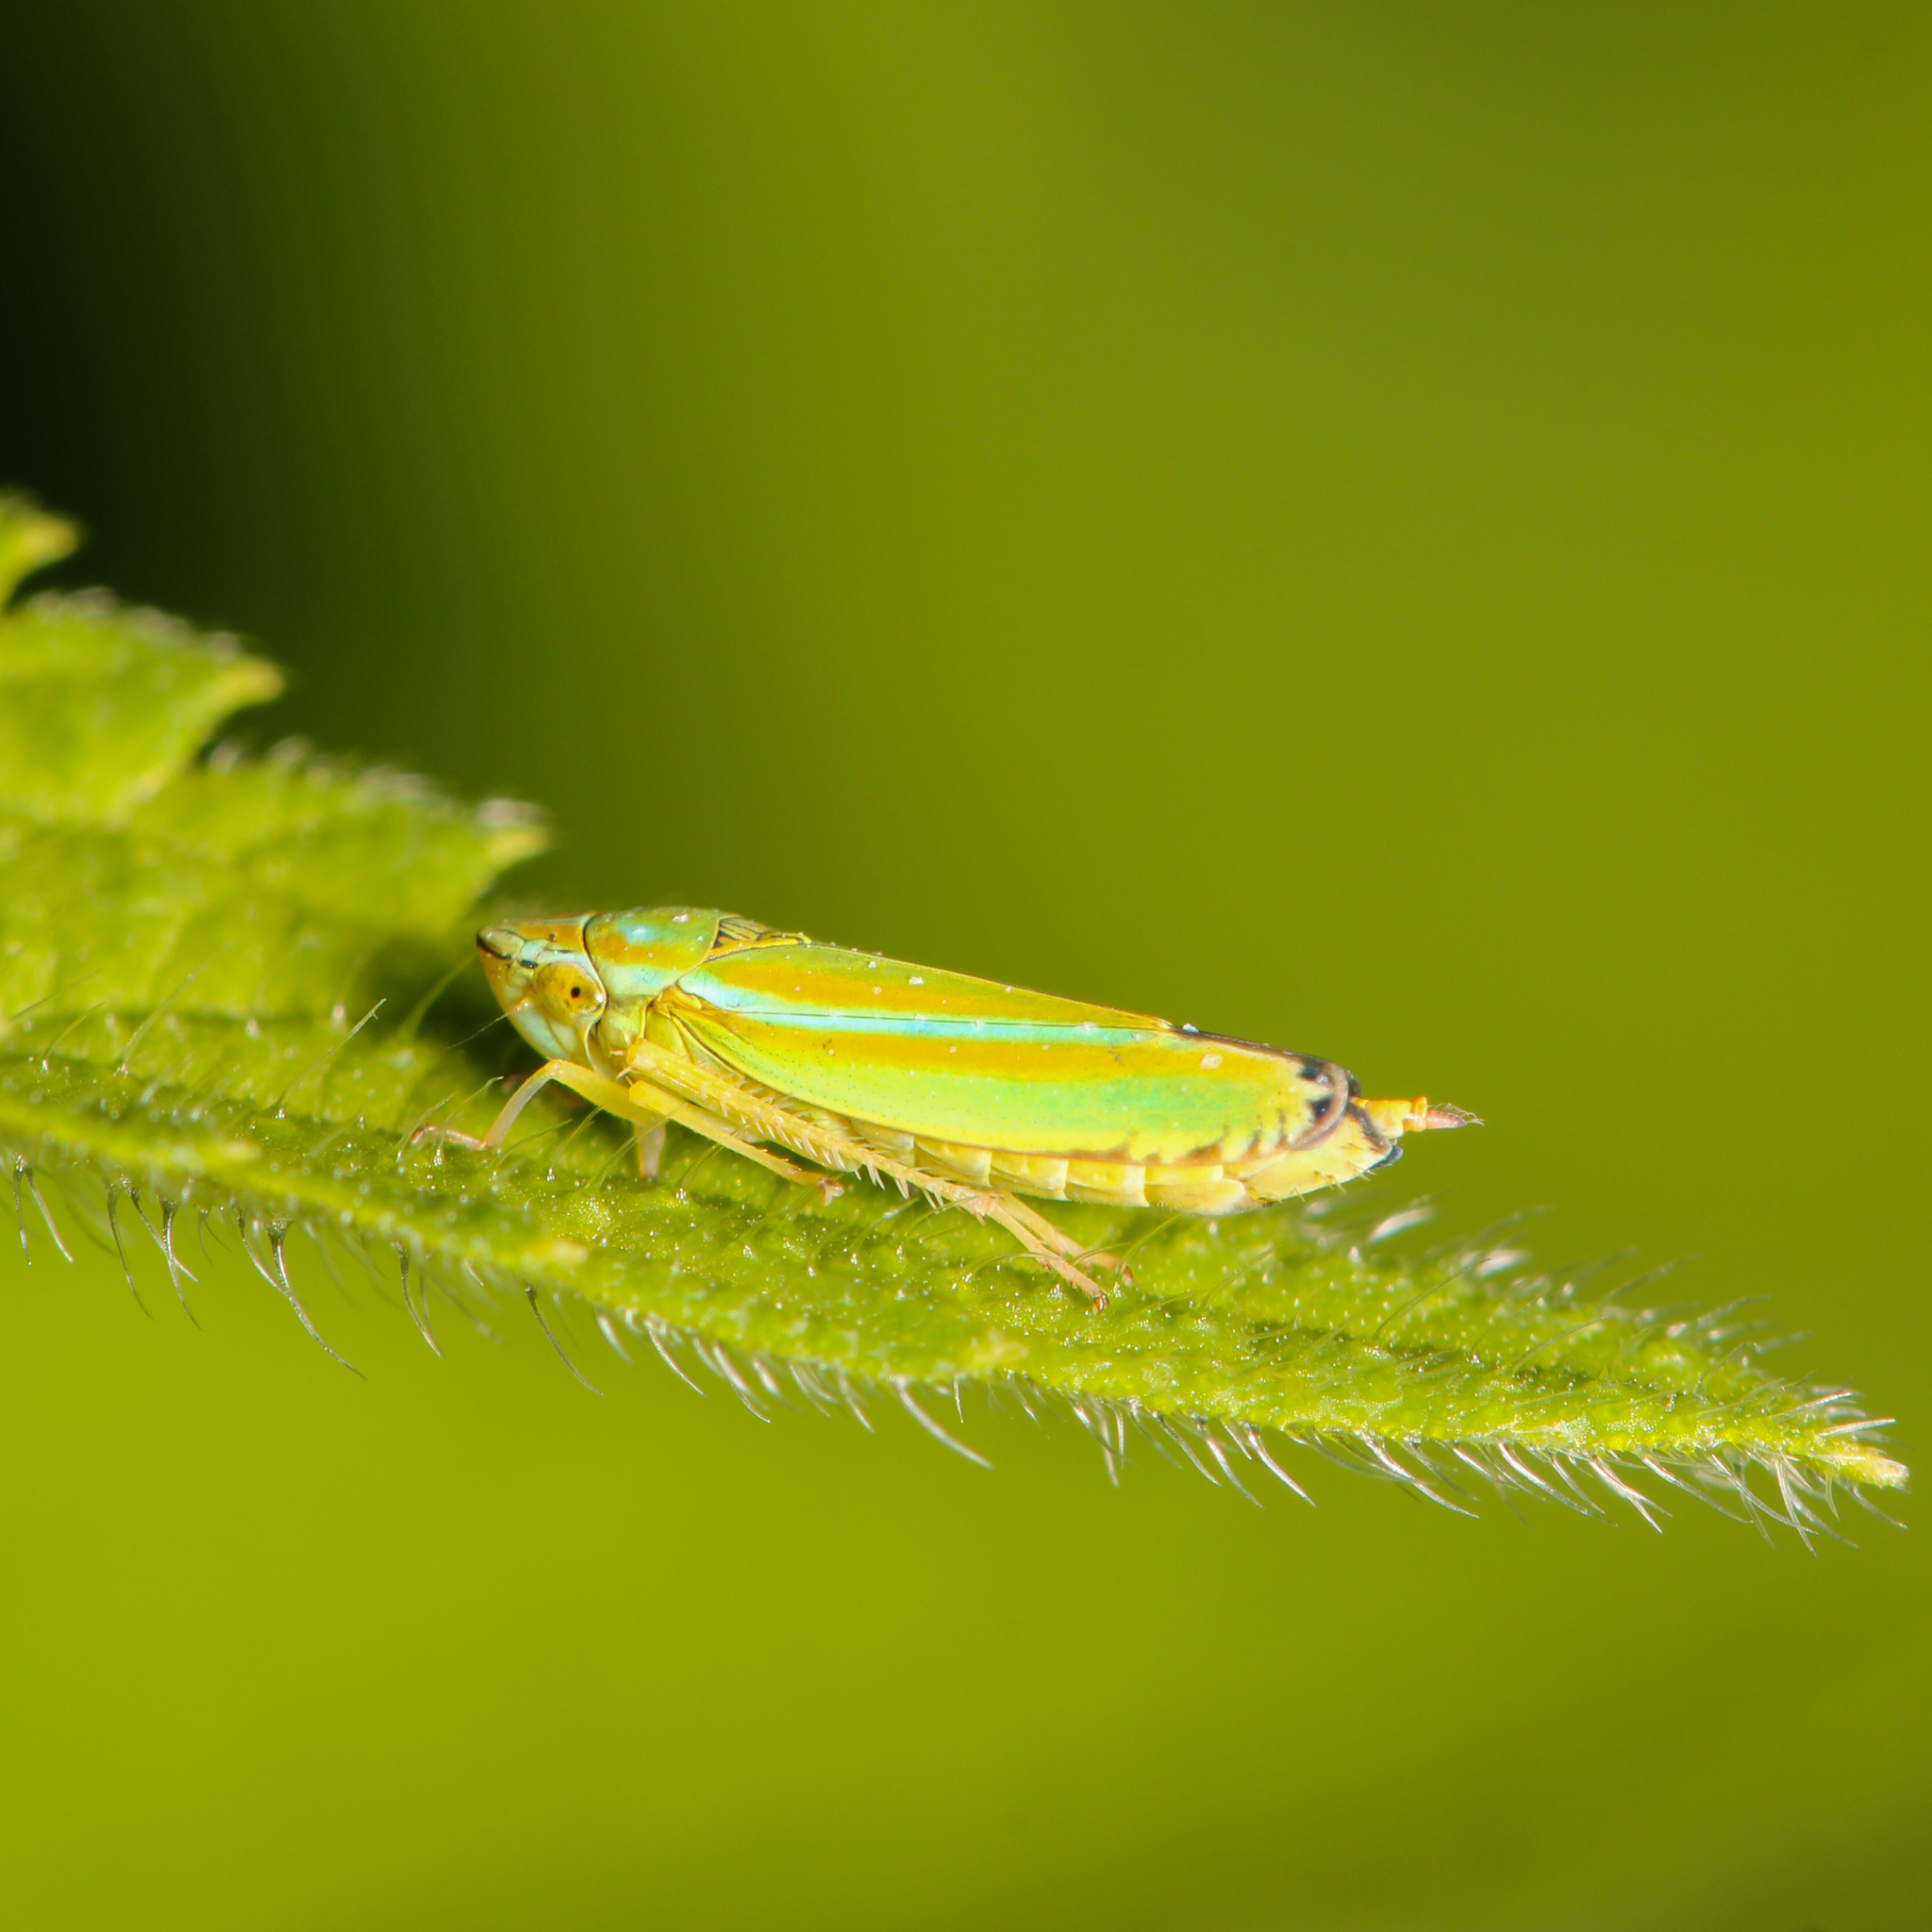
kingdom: Animalia
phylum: Arthropoda
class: Insecta
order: Hemiptera
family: Cicadellidae
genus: Graphocephala
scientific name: Graphocephala versuta
